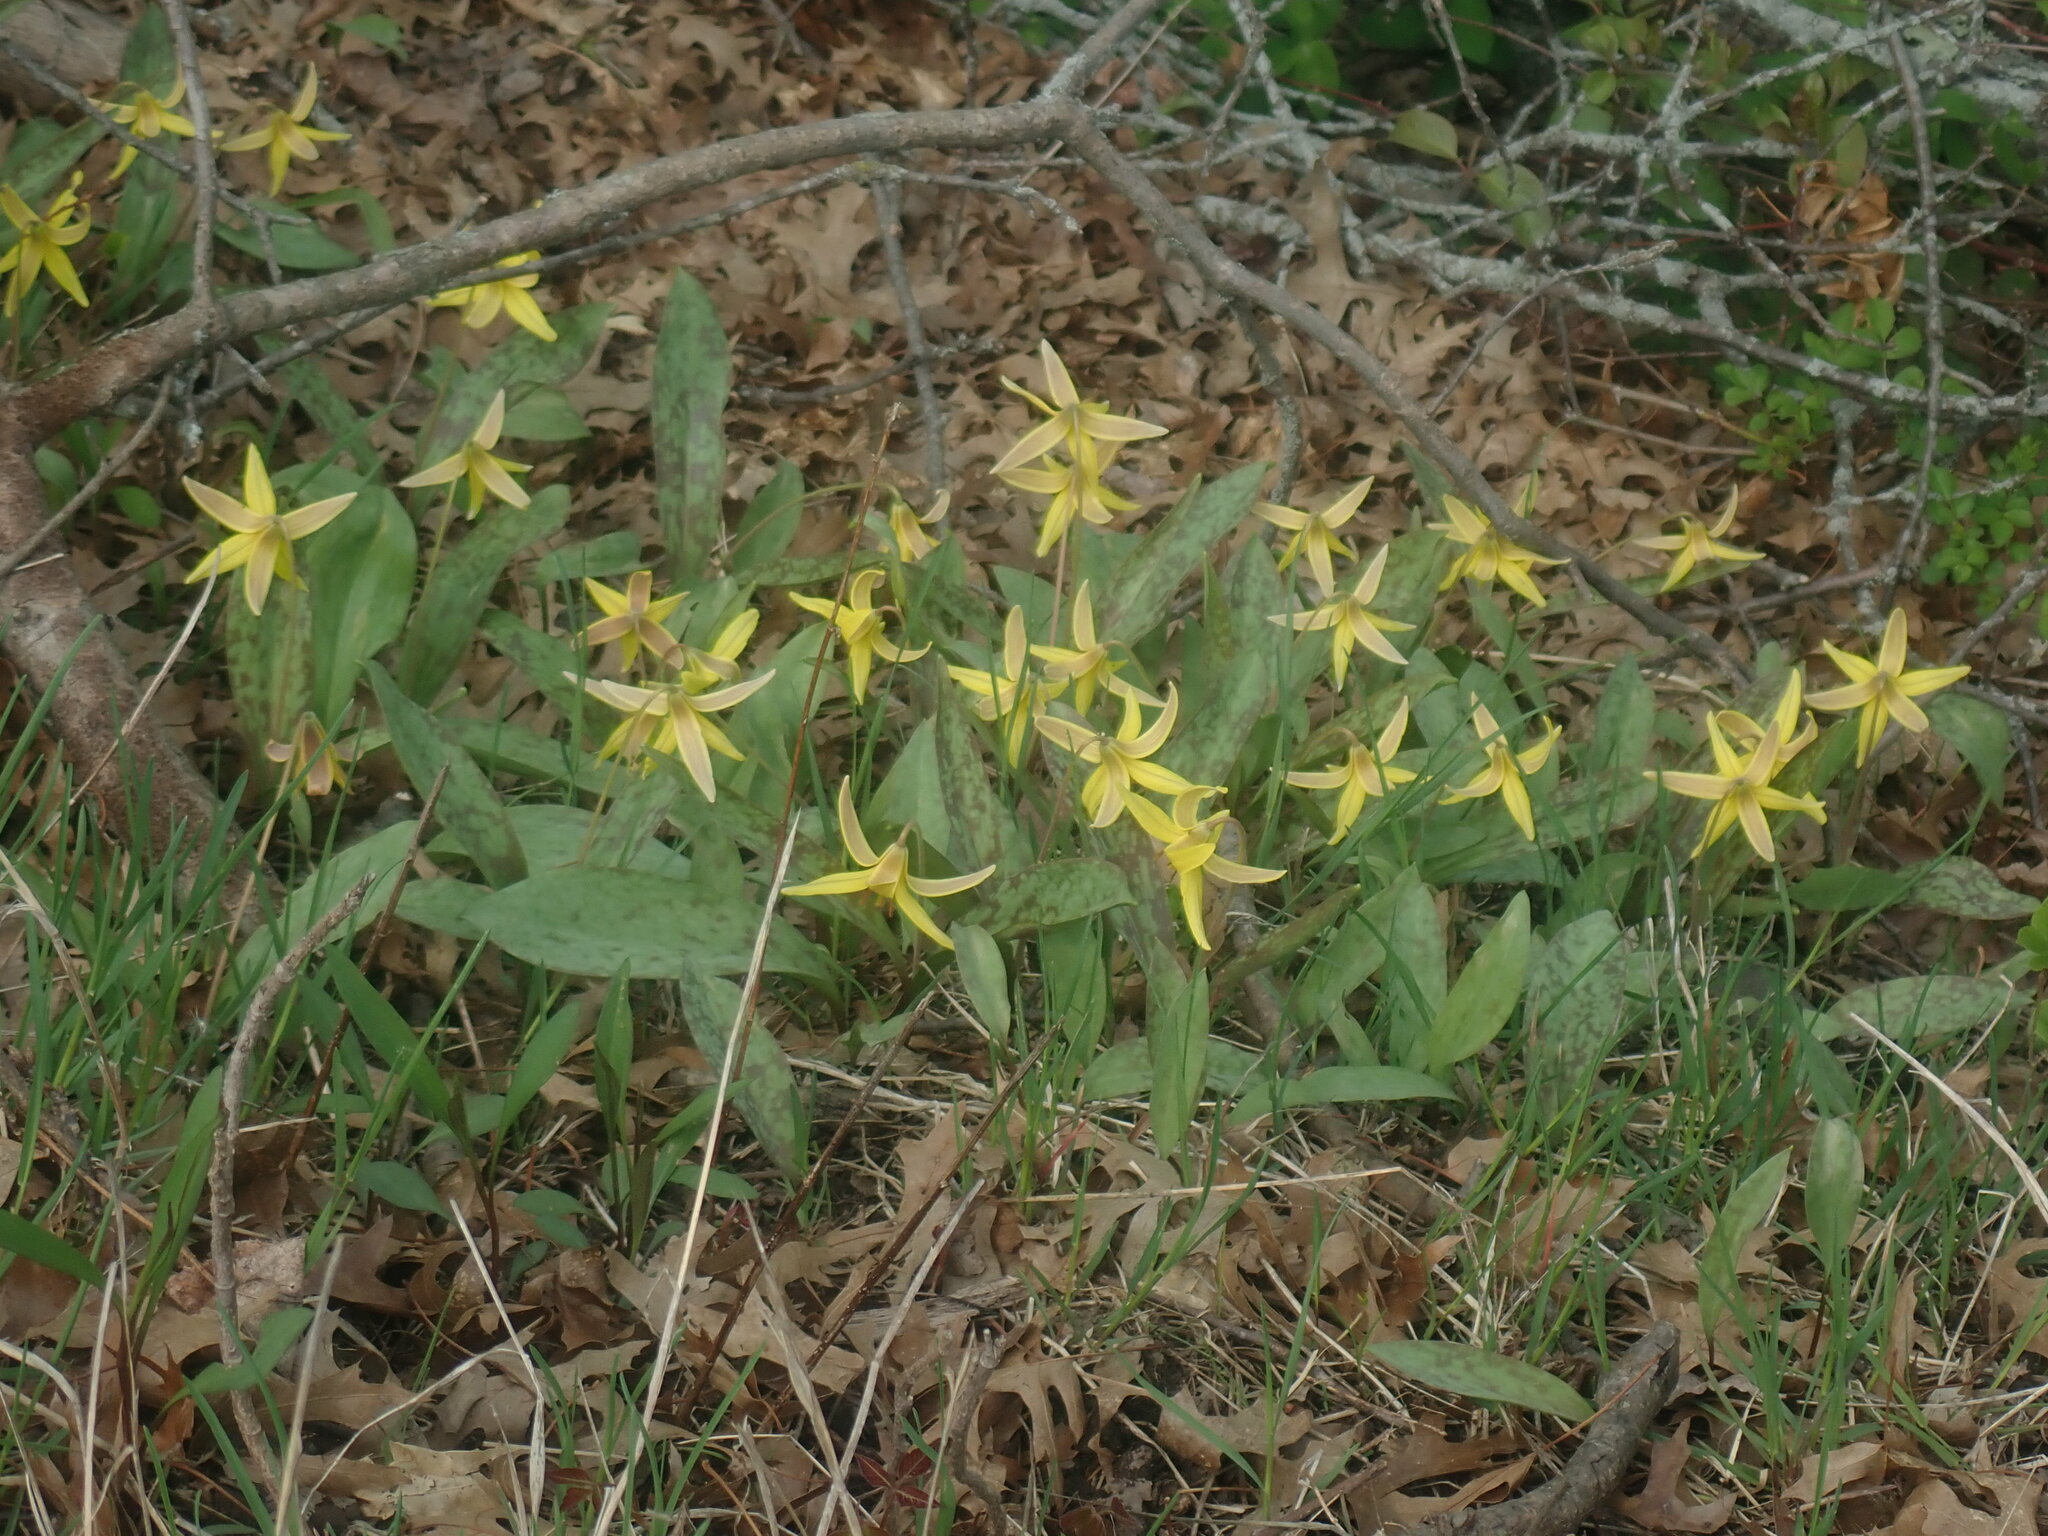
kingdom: Plantae
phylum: Tracheophyta
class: Liliopsida
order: Liliales
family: Liliaceae
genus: Erythronium
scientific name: Erythronium americanum
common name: Yellow adder's-tongue
